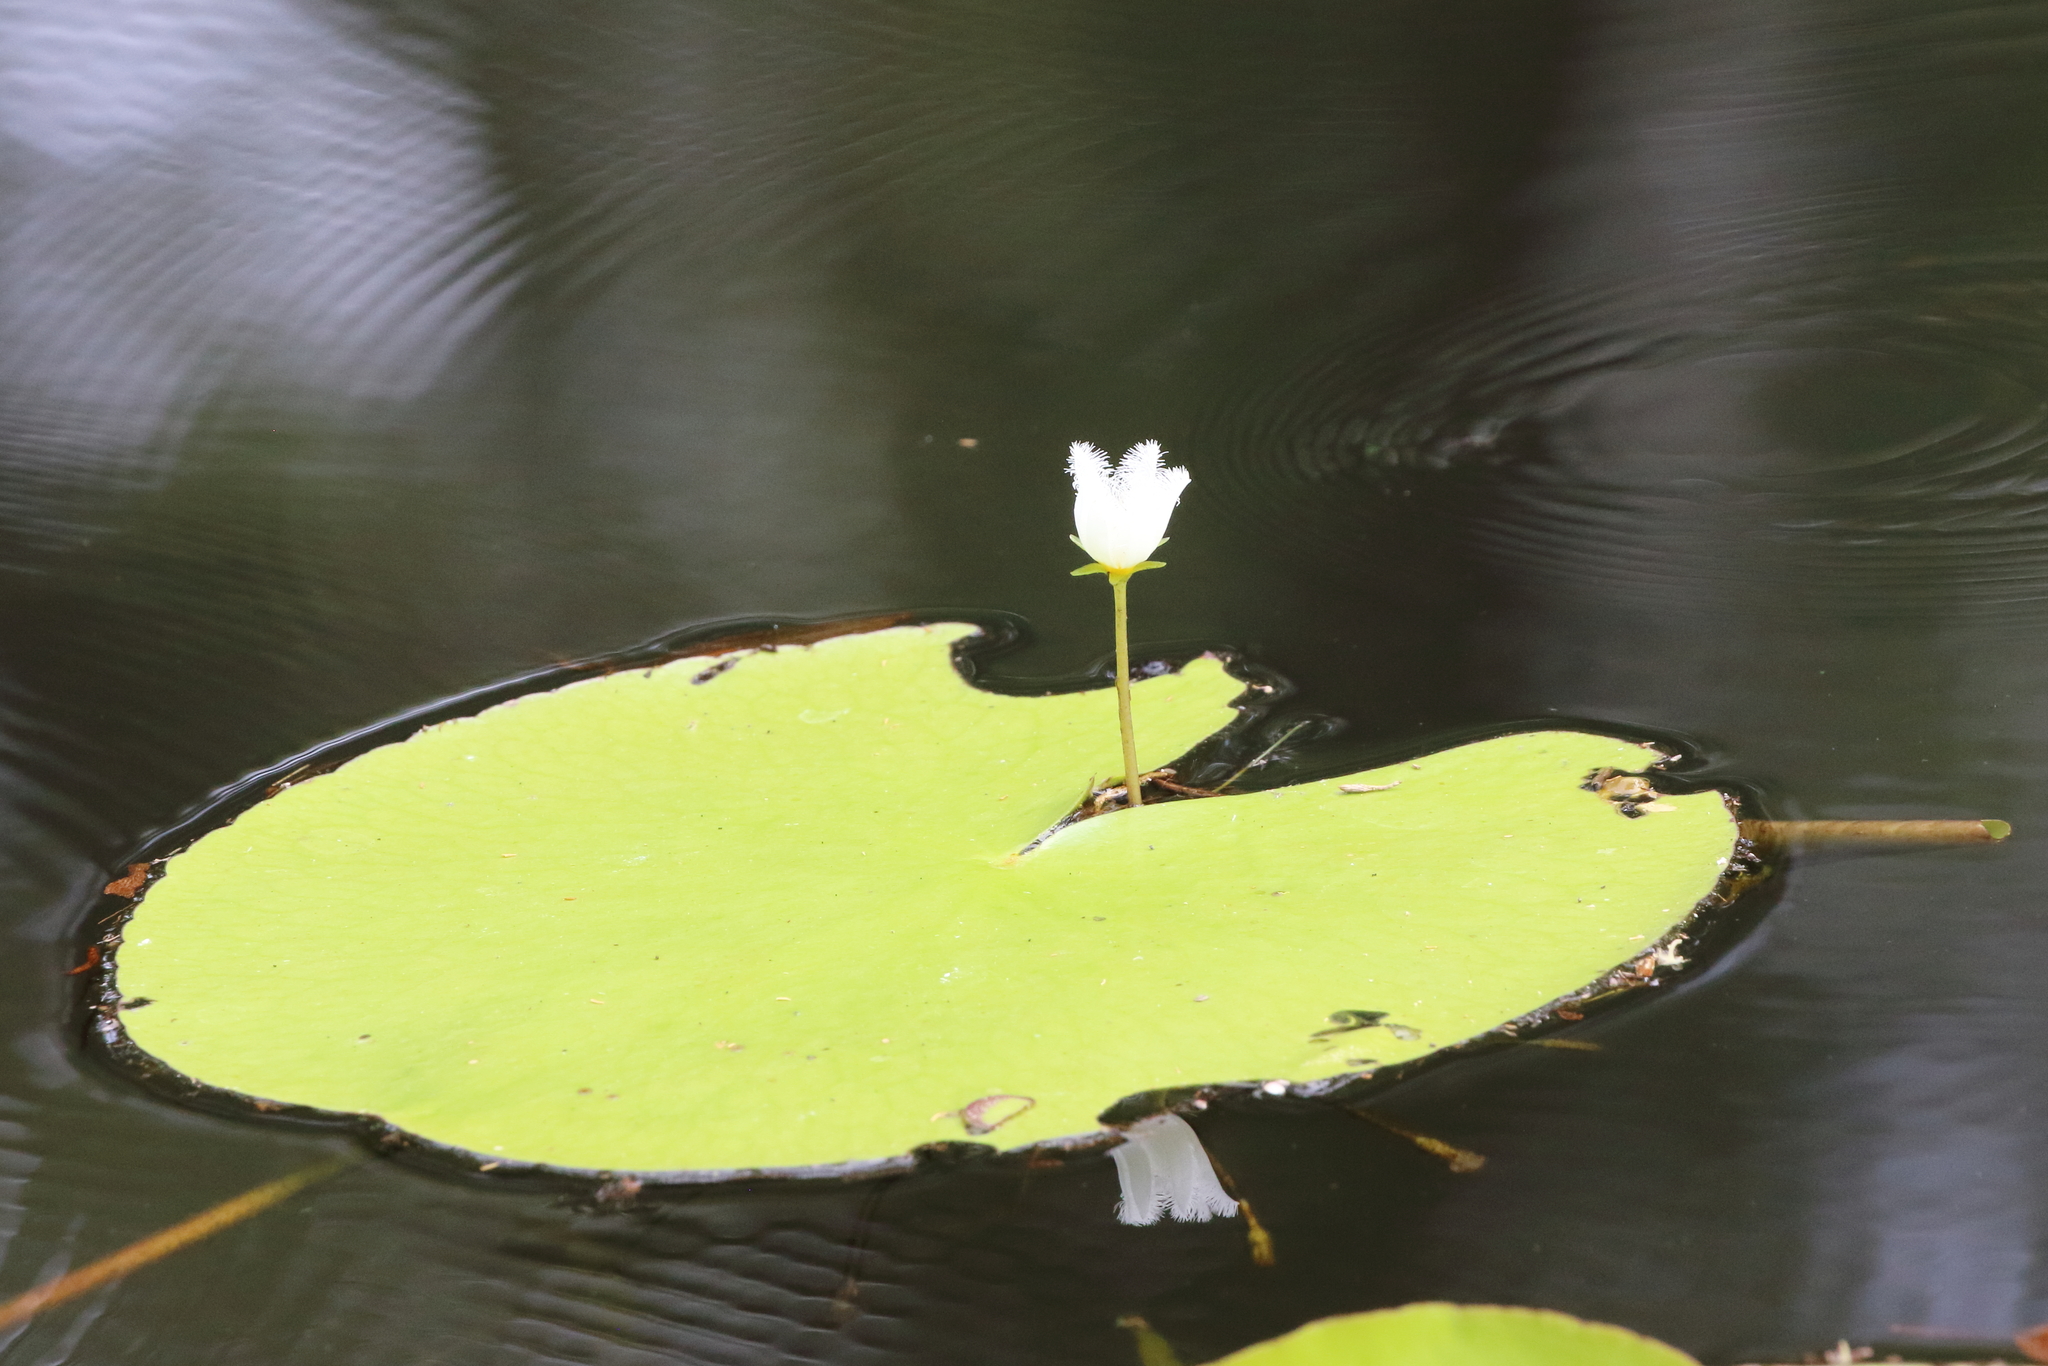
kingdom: Plantae
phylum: Tracheophyta
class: Magnoliopsida
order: Asterales
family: Menyanthaceae
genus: Nymphoides
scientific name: Nymphoides indica
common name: Water-snowflake
